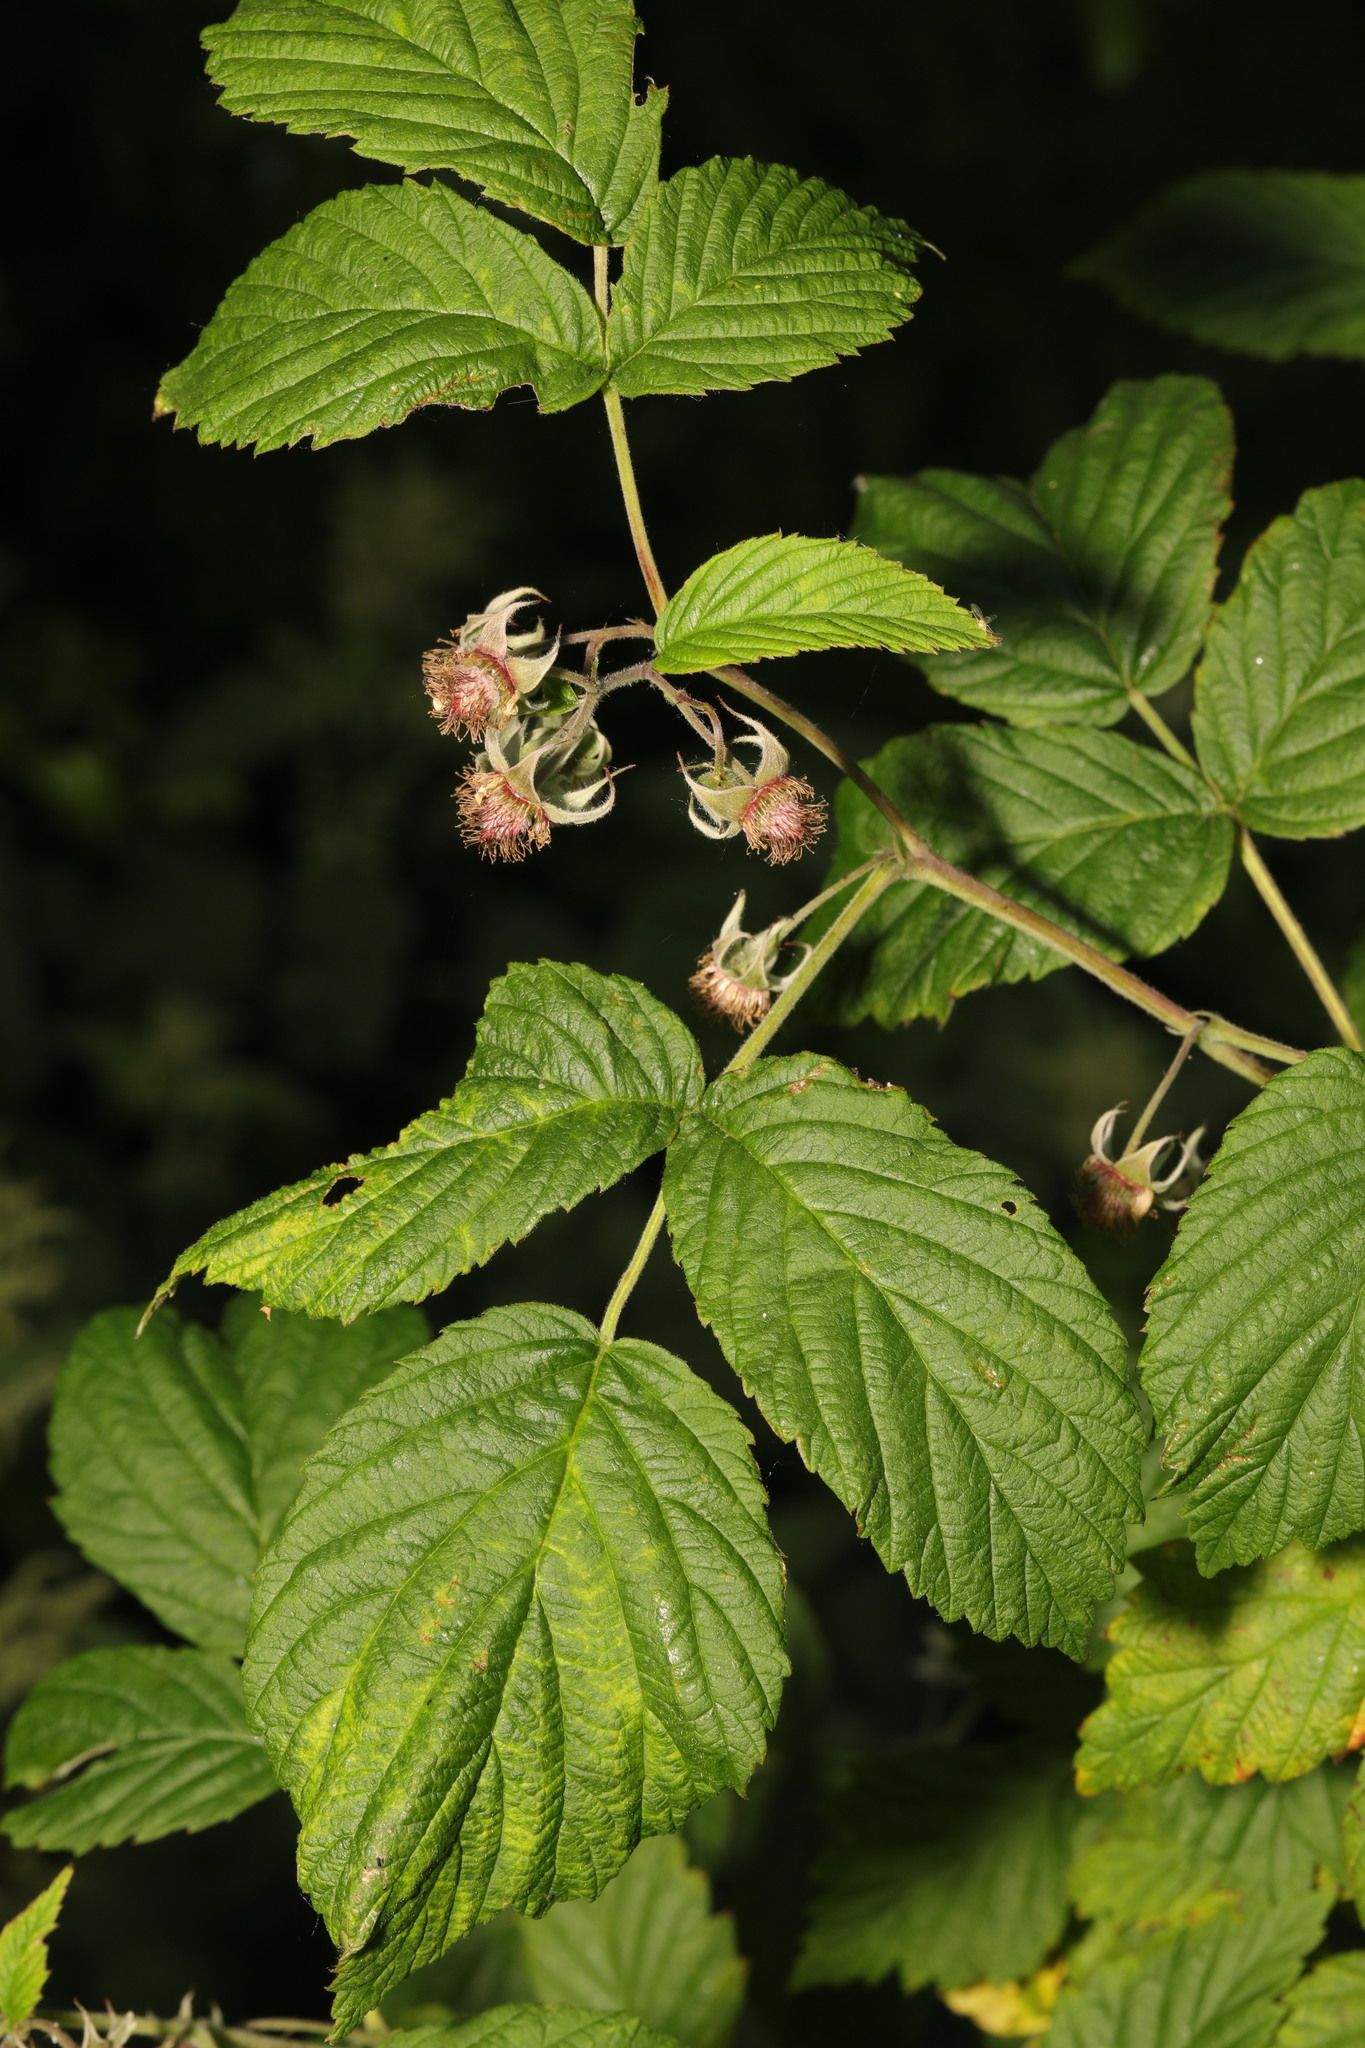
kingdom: Plantae
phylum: Tracheophyta
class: Magnoliopsida
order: Rosales
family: Rosaceae
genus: Rubus
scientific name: Rubus idaeus
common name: Raspberry
